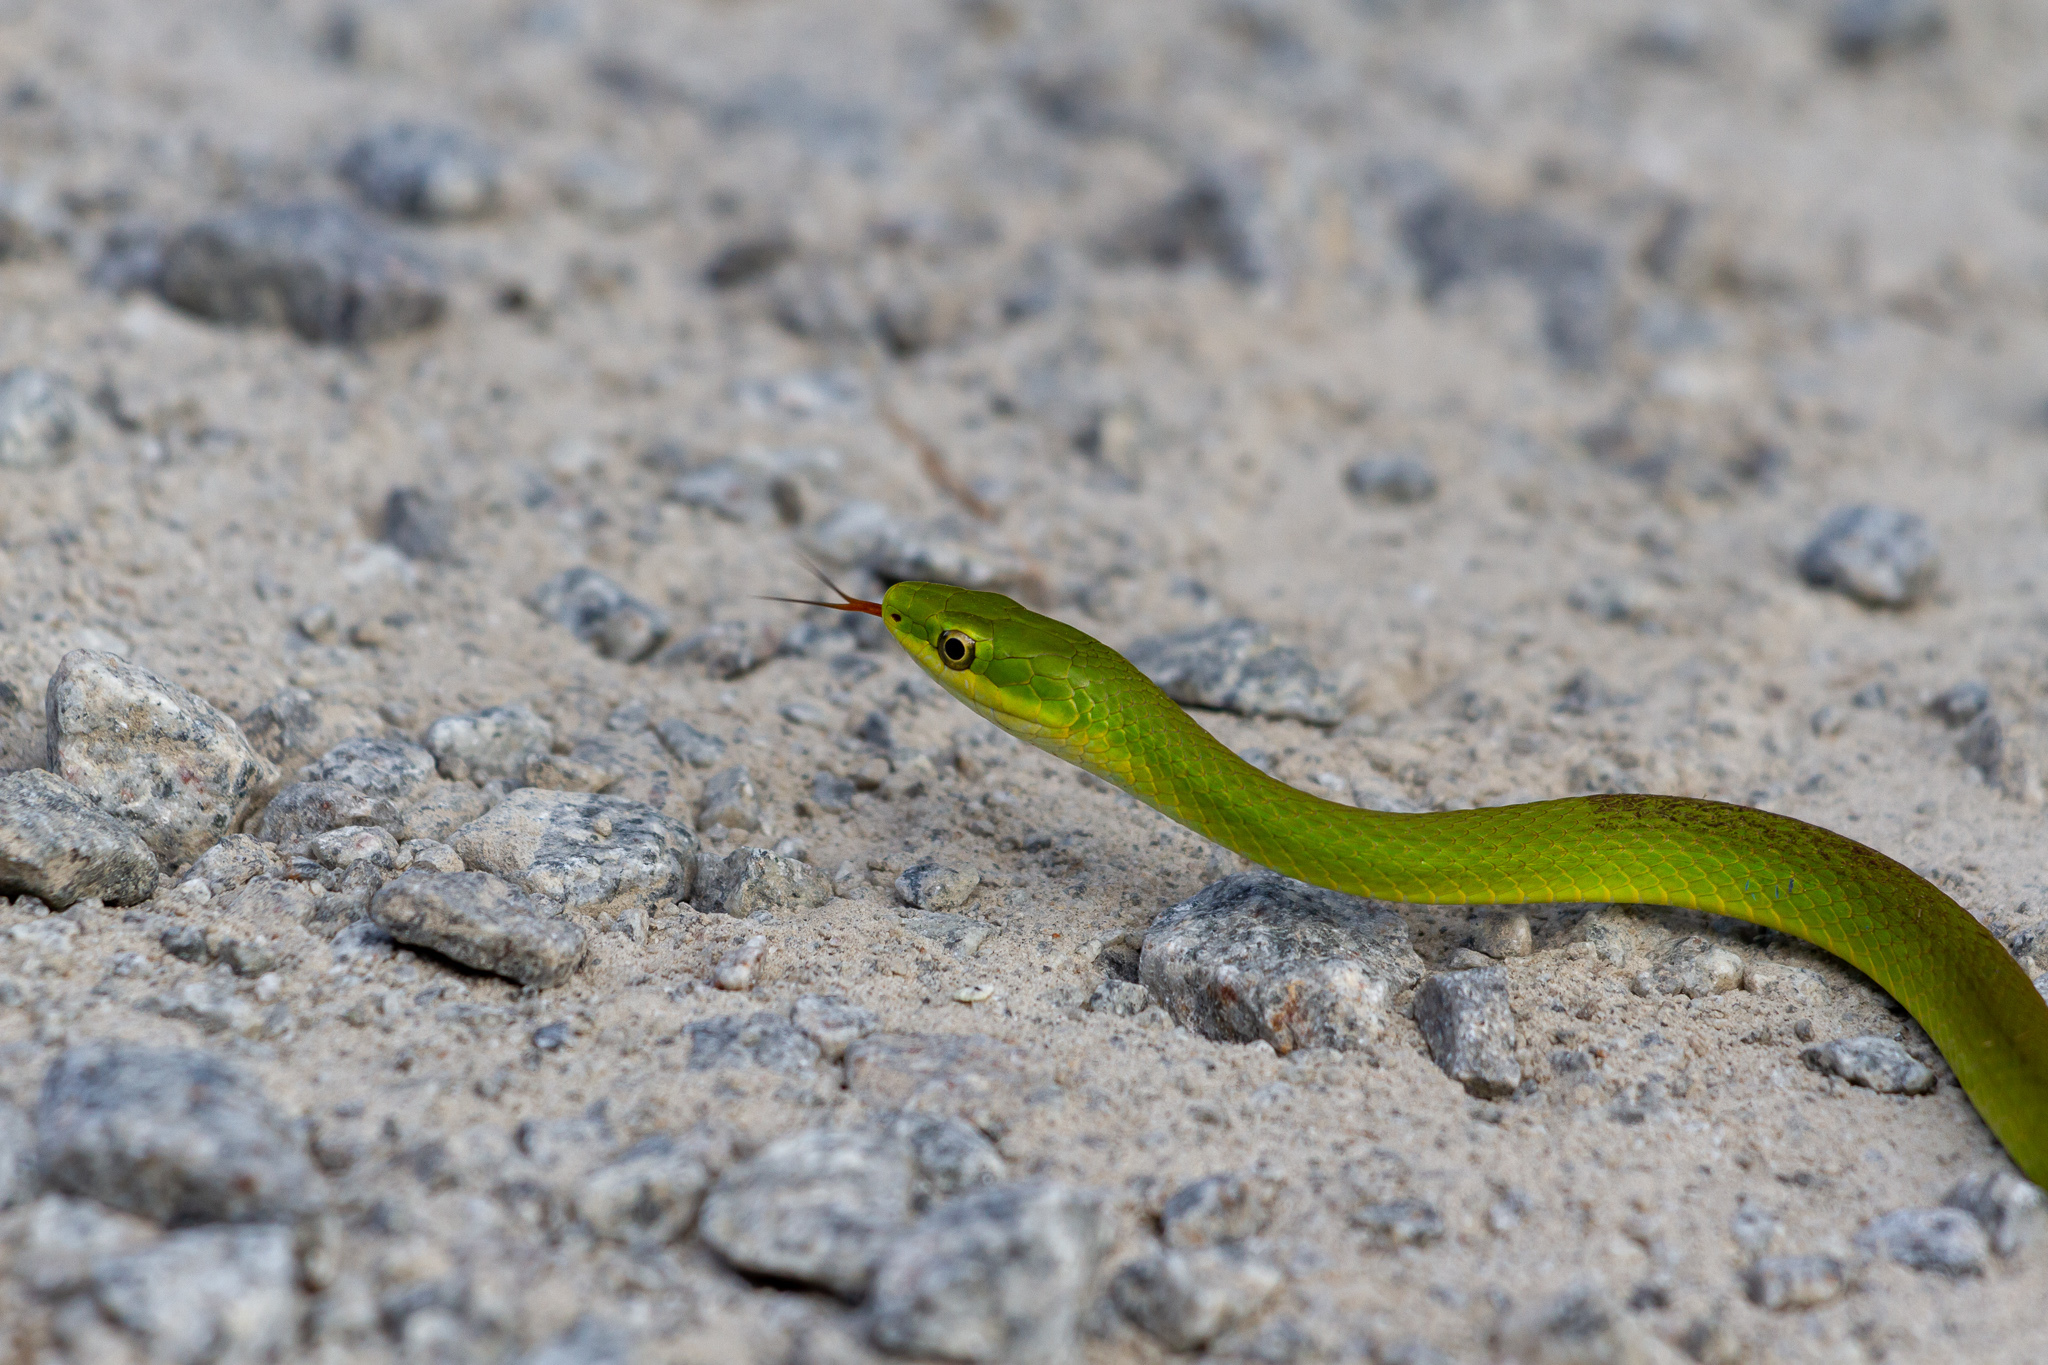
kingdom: Animalia
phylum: Chordata
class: Squamata
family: Colubridae
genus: Opheodrys
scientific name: Opheodrys aestivus
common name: Rough greensnake
